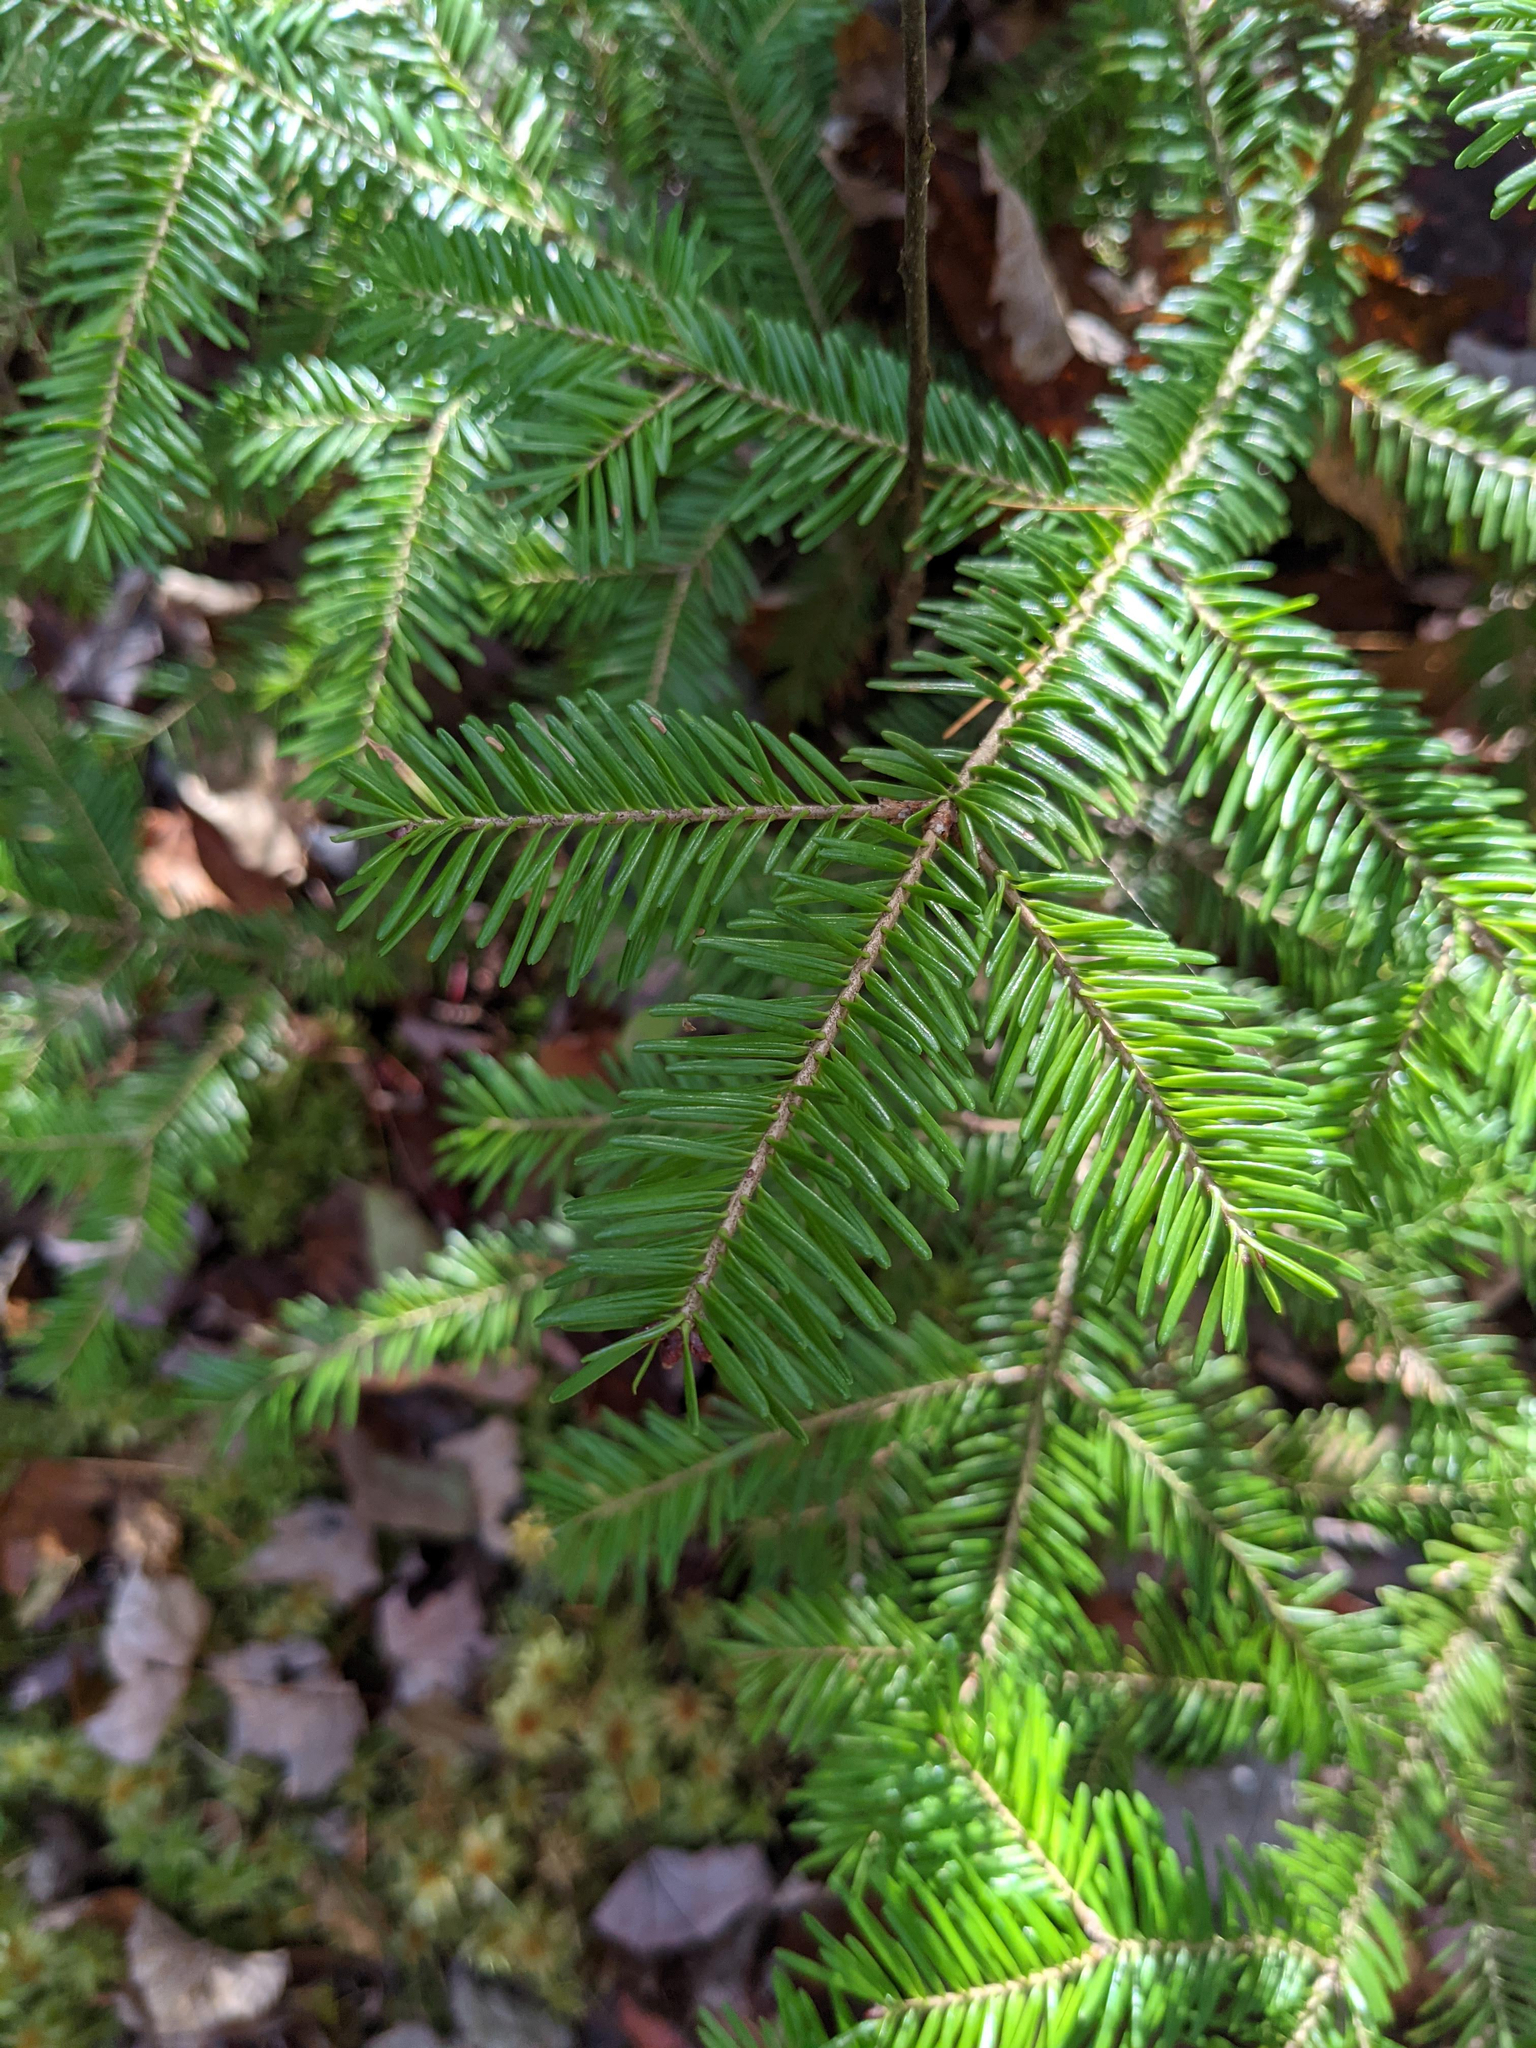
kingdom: Plantae
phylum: Tracheophyta
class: Pinopsida
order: Pinales
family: Pinaceae
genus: Abies
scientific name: Abies balsamea
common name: Balsam fir
